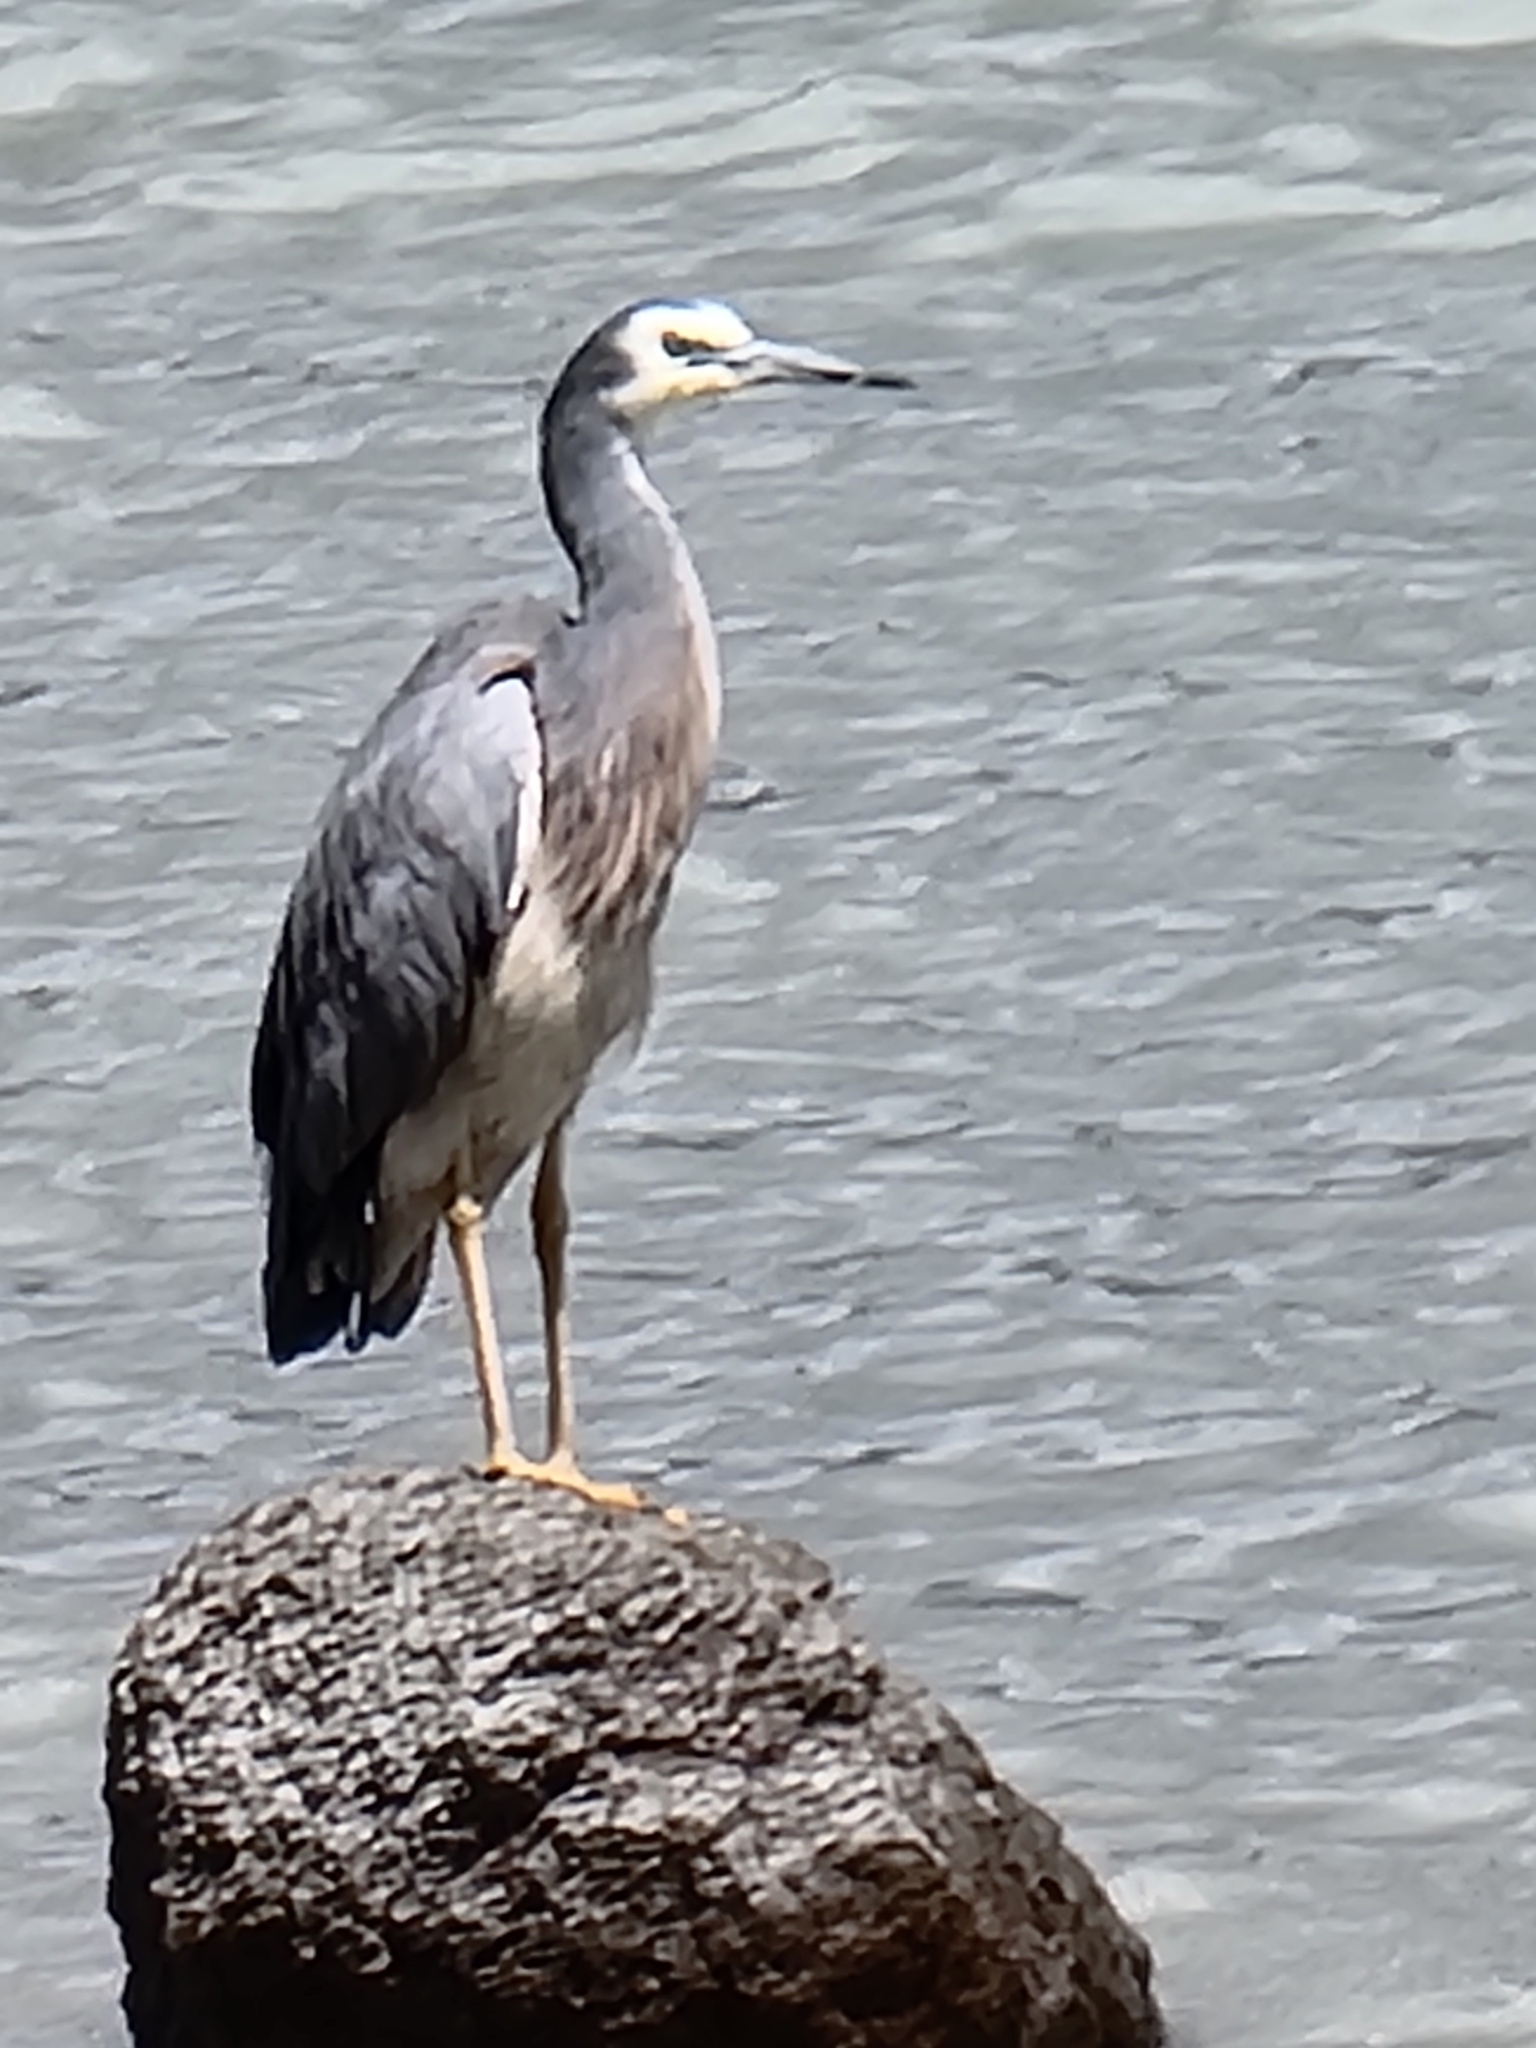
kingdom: Animalia
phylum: Chordata
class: Aves
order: Pelecaniformes
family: Ardeidae
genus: Egretta
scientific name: Egretta novaehollandiae
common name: White-faced heron
